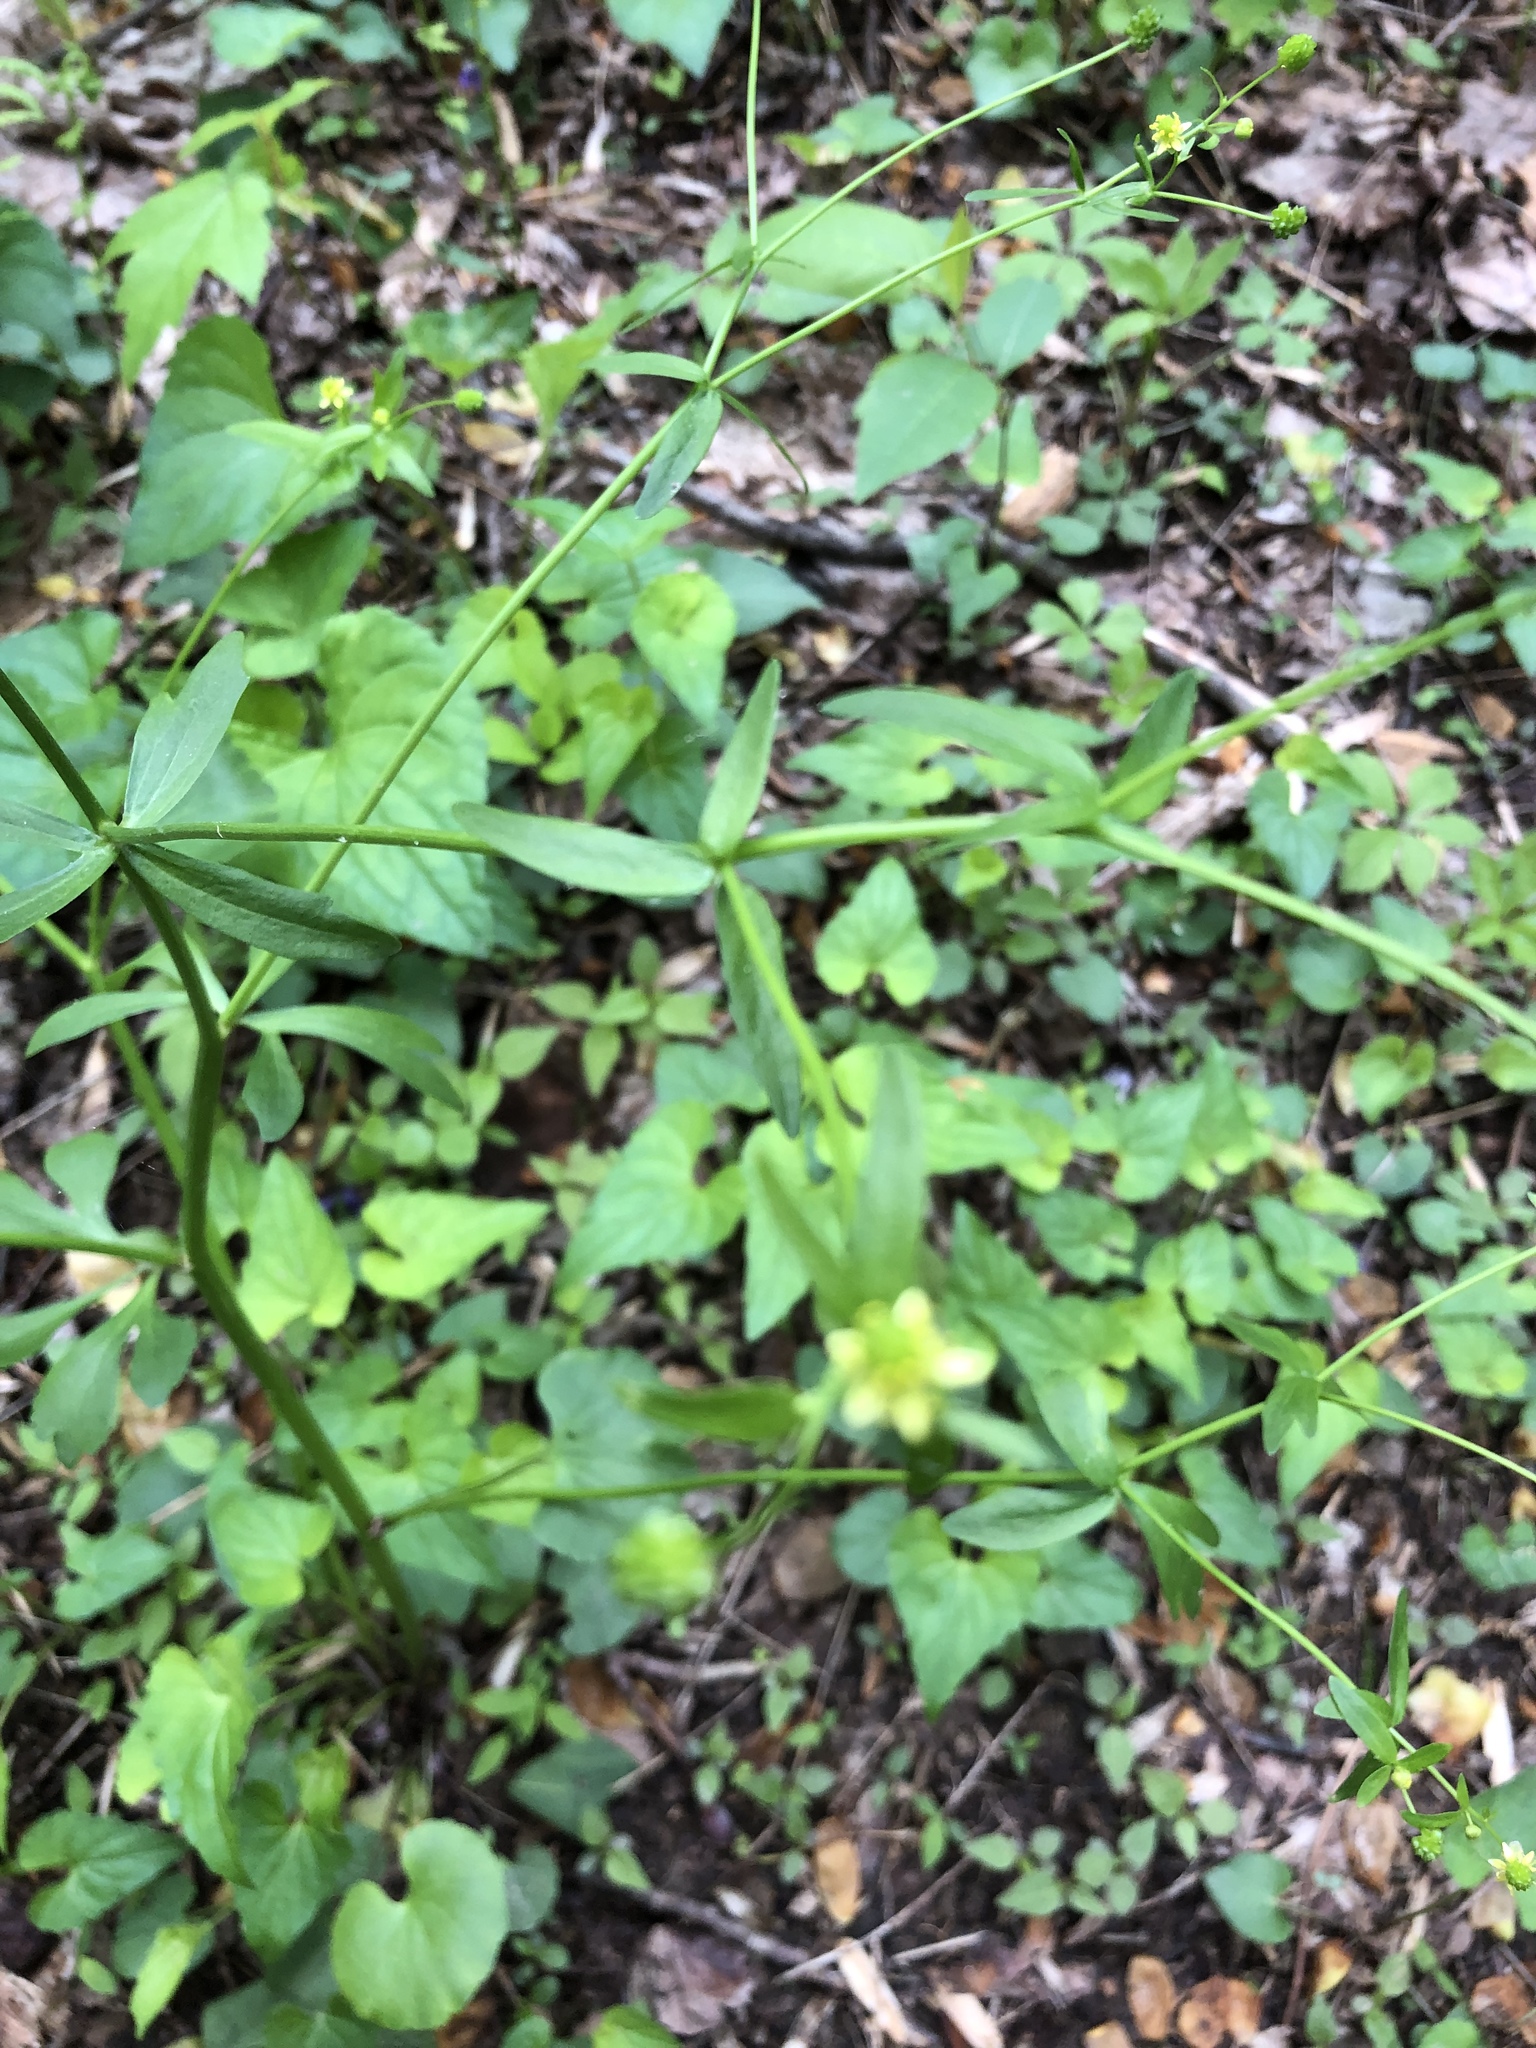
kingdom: Plantae
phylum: Tracheophyta
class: Magnoliopsida
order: Ranunculales
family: Ranunculaceae
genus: Ranunculus
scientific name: Ranunculus abortivus
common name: Early wood buttercup
